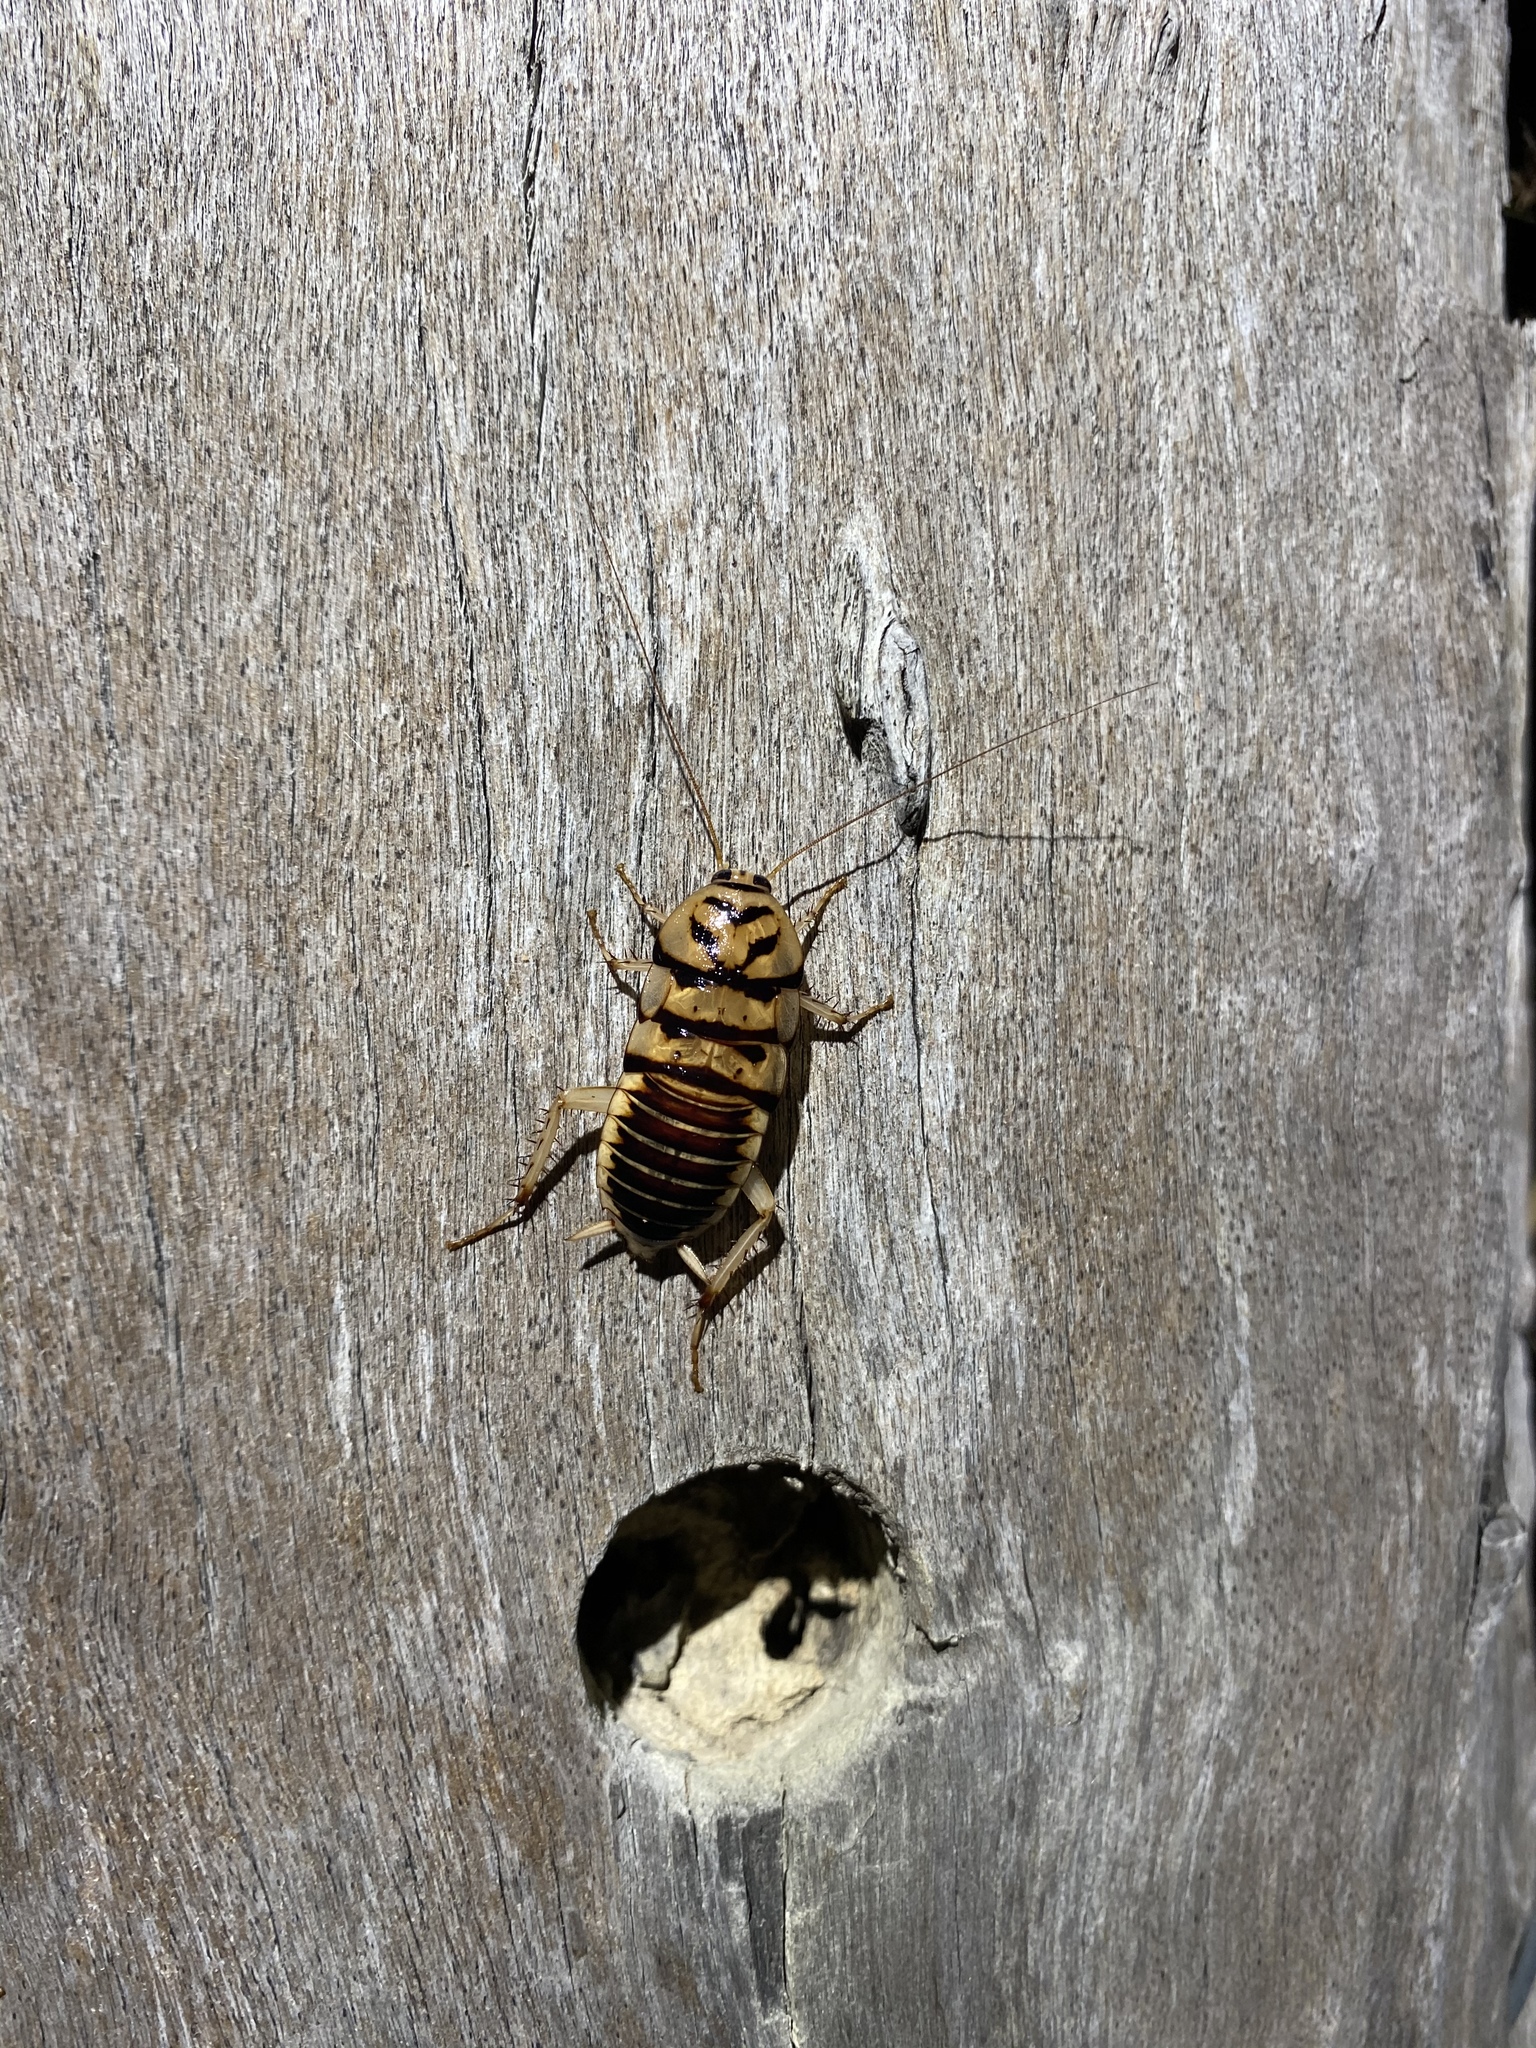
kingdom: Animalia
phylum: Arthropoda
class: Insecta
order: Blattodea
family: Blattidae
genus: Melanozosteria
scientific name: Melanozosteria triangulata
